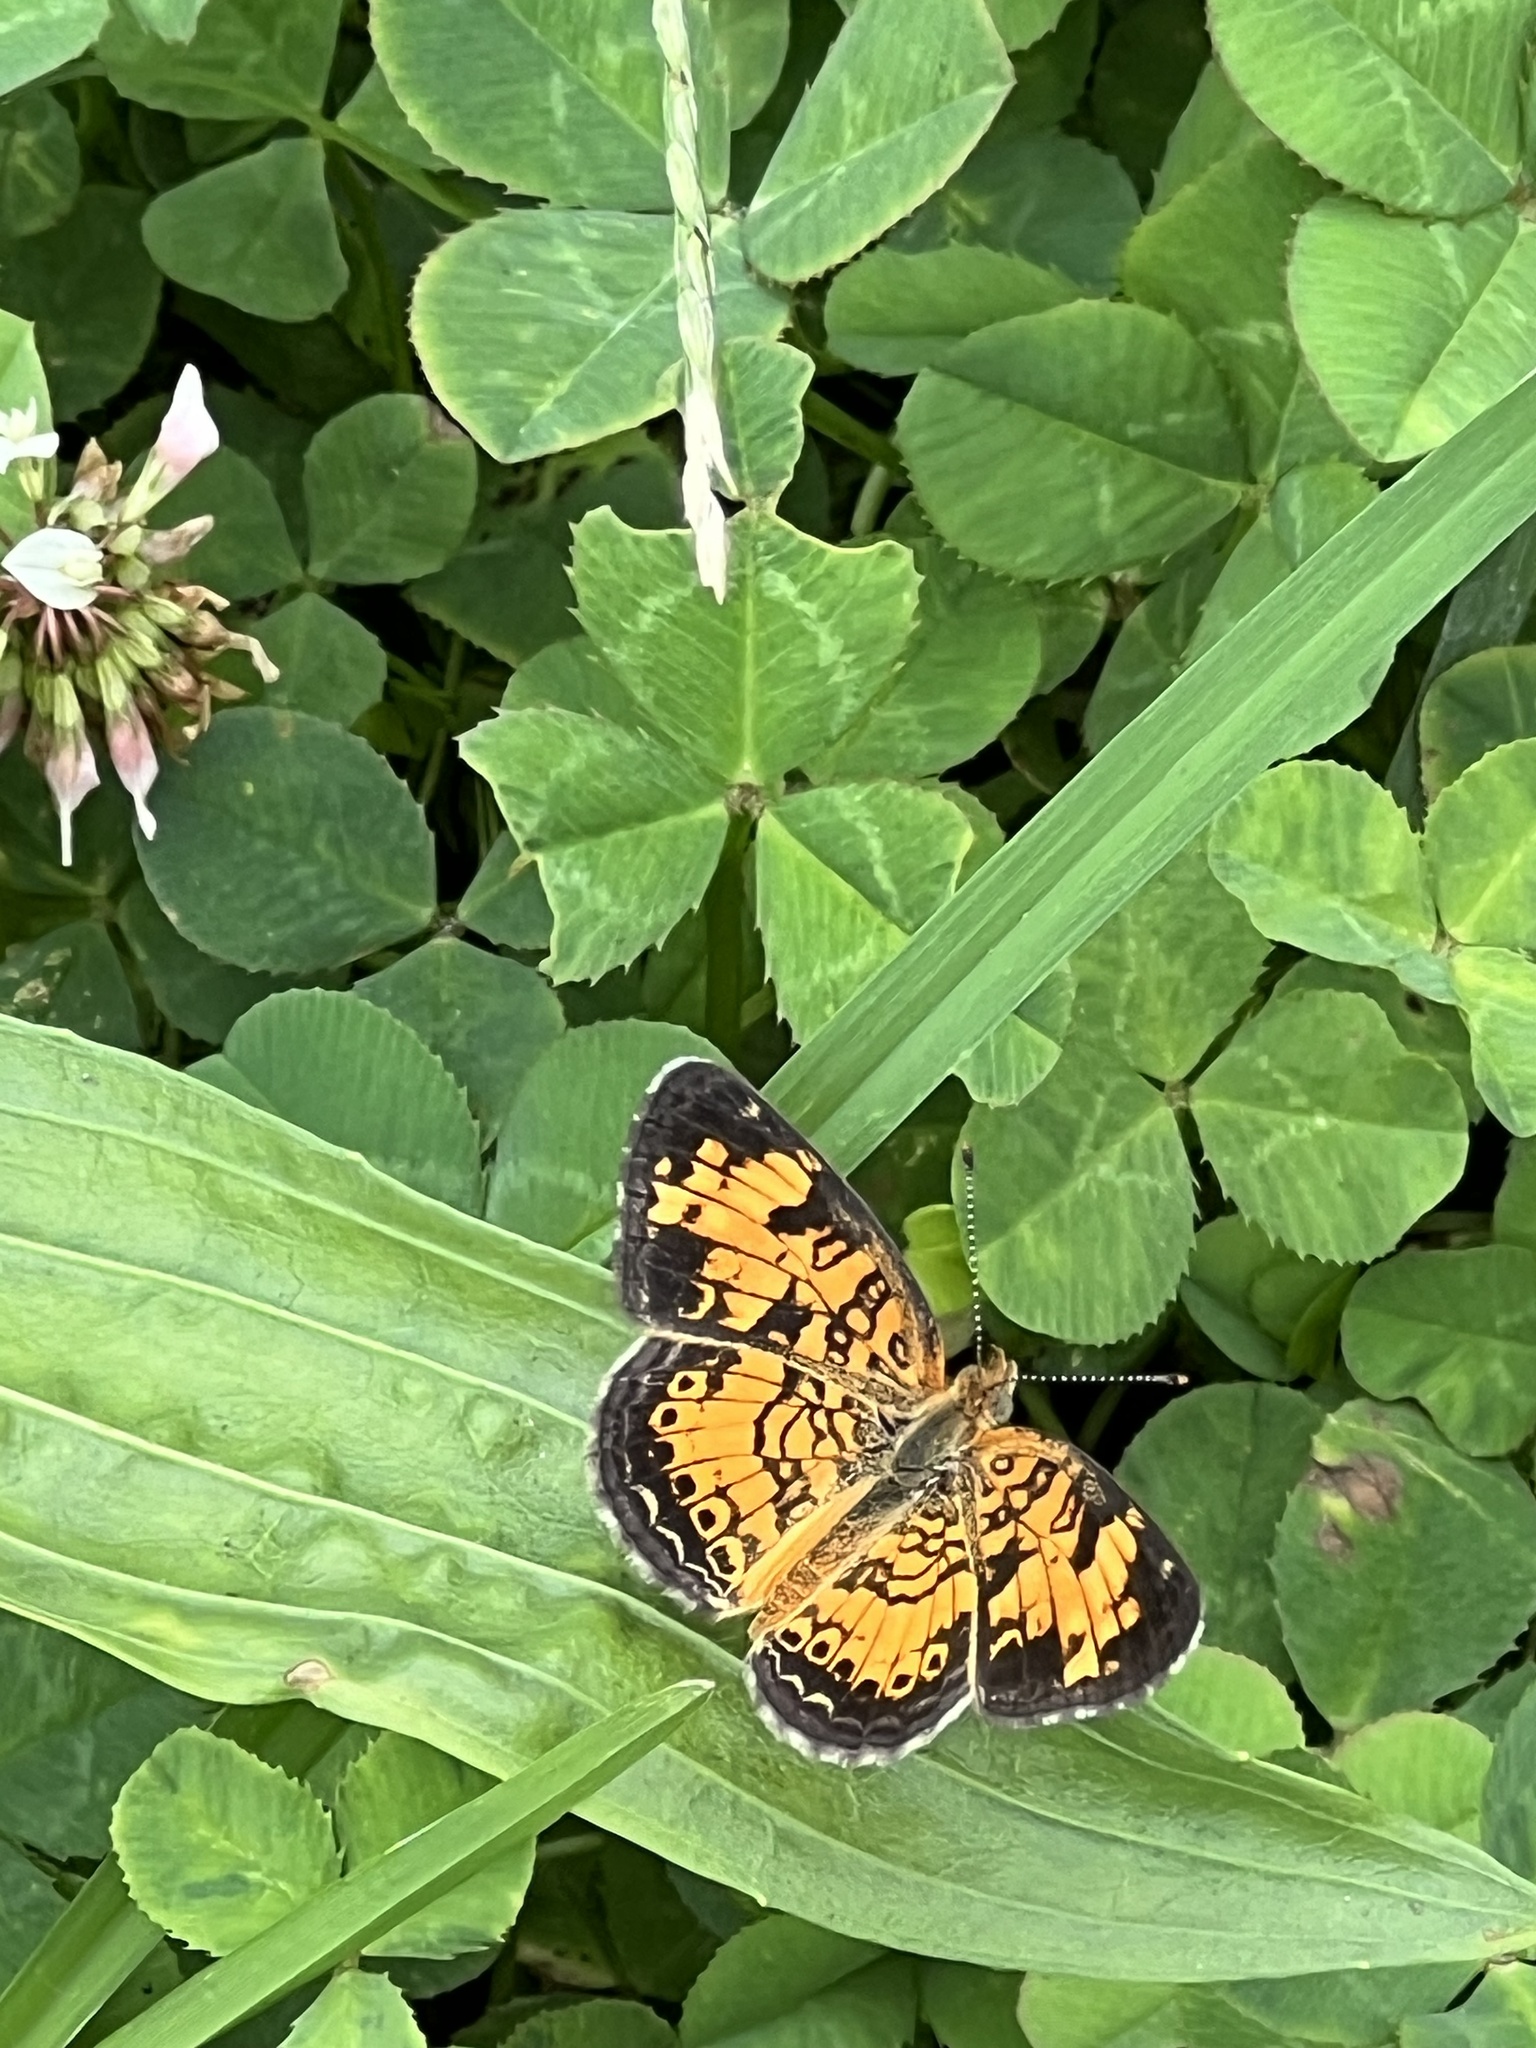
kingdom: Animalia
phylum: Arthropoda
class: Insecta
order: Lepidoptera
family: Nymphalidae
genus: Phyciodes
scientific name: Phyciodes tharos
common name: Pearl crescent
